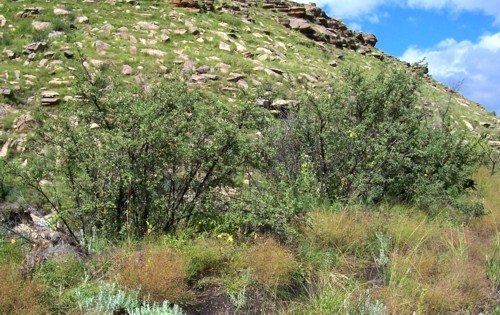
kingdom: Plantae
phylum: Tracheophyta
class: Magnoliopsida
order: Rosales
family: Rosaceae
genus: Leucosidea
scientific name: Leucosidea sericea
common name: Oldwood
